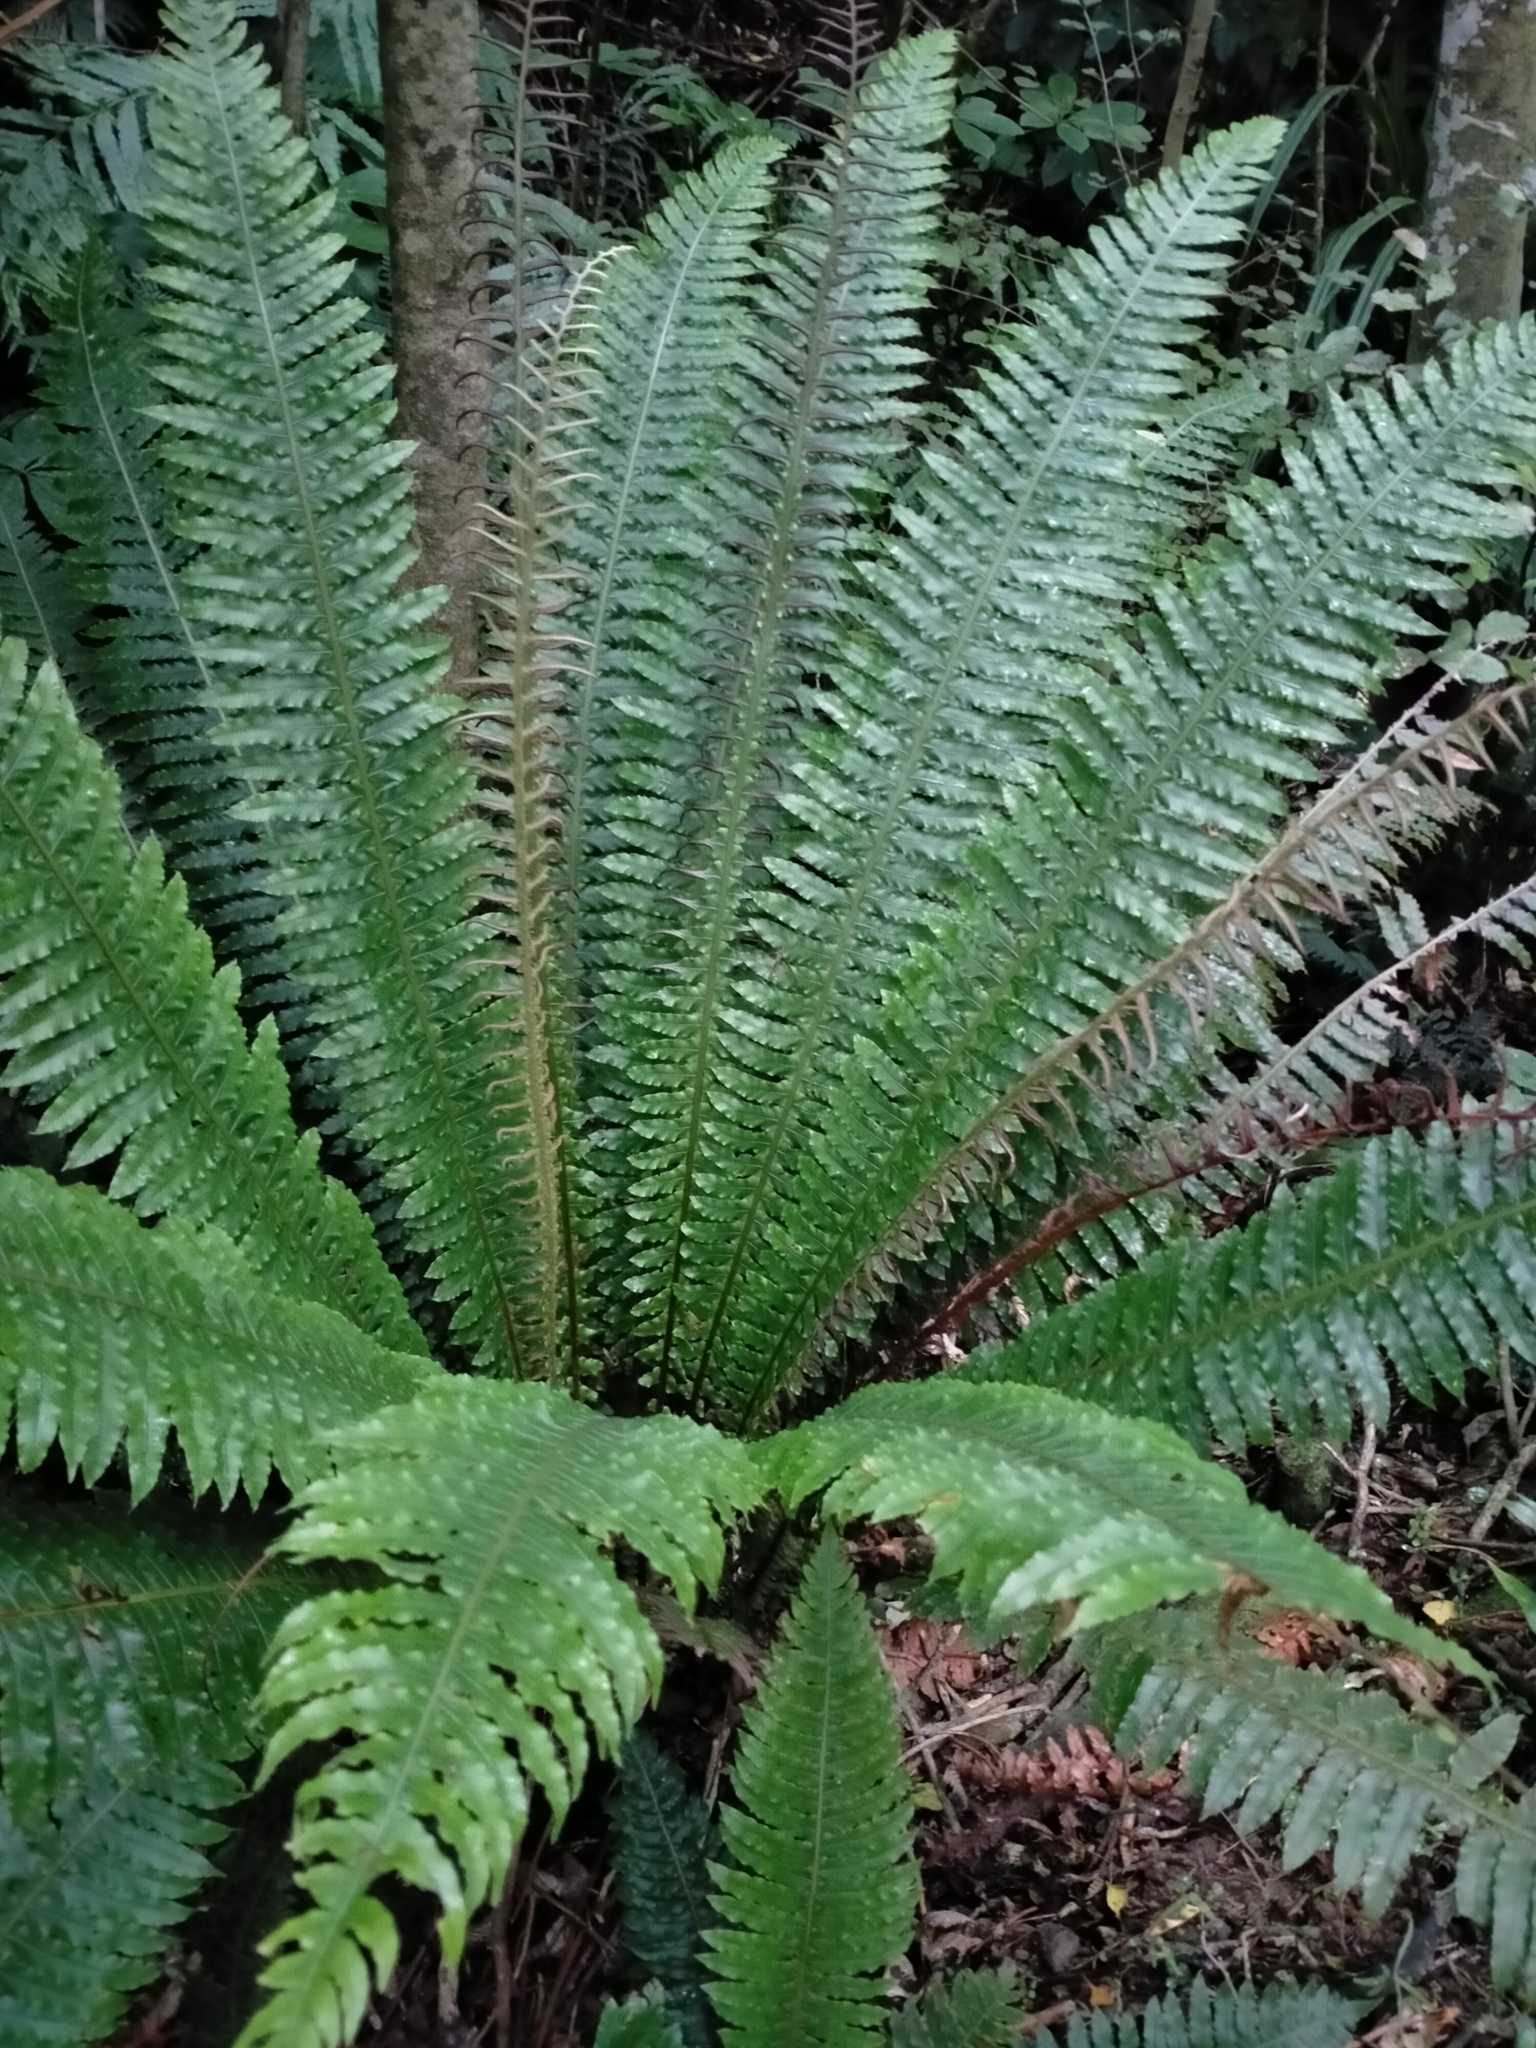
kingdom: Plantae
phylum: Tracheophyta
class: Polypodiopsida
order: Polypodiales
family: Blechnaceae
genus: Lomaria
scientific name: Lomaria discolor
